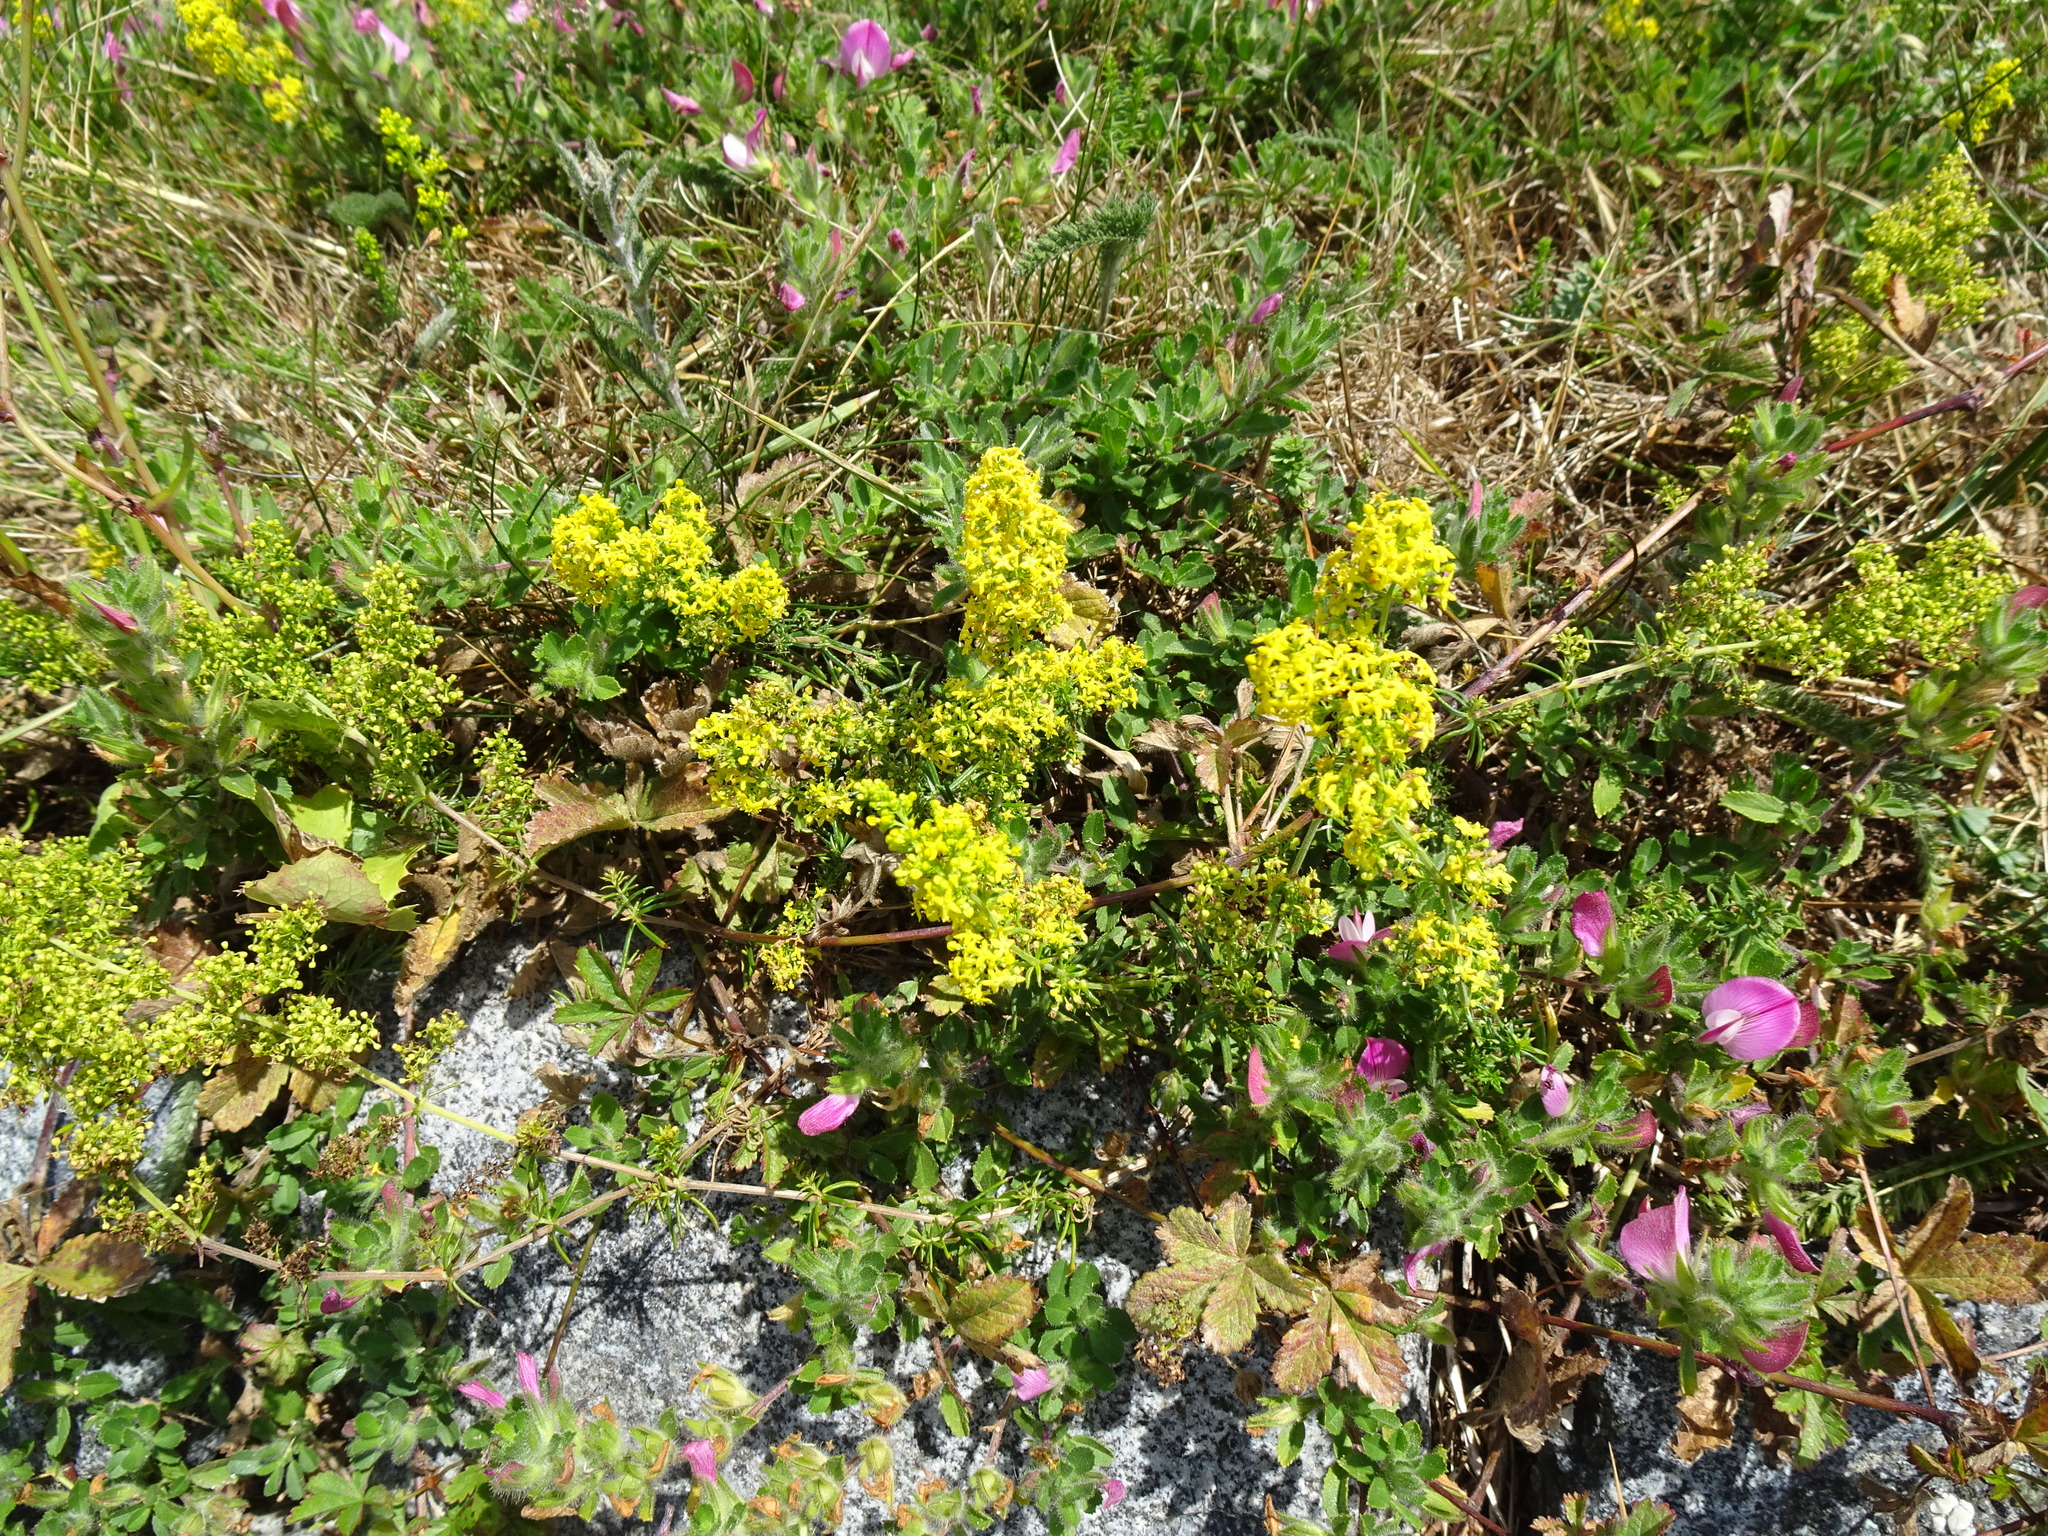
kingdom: Plantae
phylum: Tracheophyta
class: Magnoliopsida
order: Gentianales
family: Rubiaceae
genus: Galium
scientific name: Galium verum
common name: Lady's bedstraw
